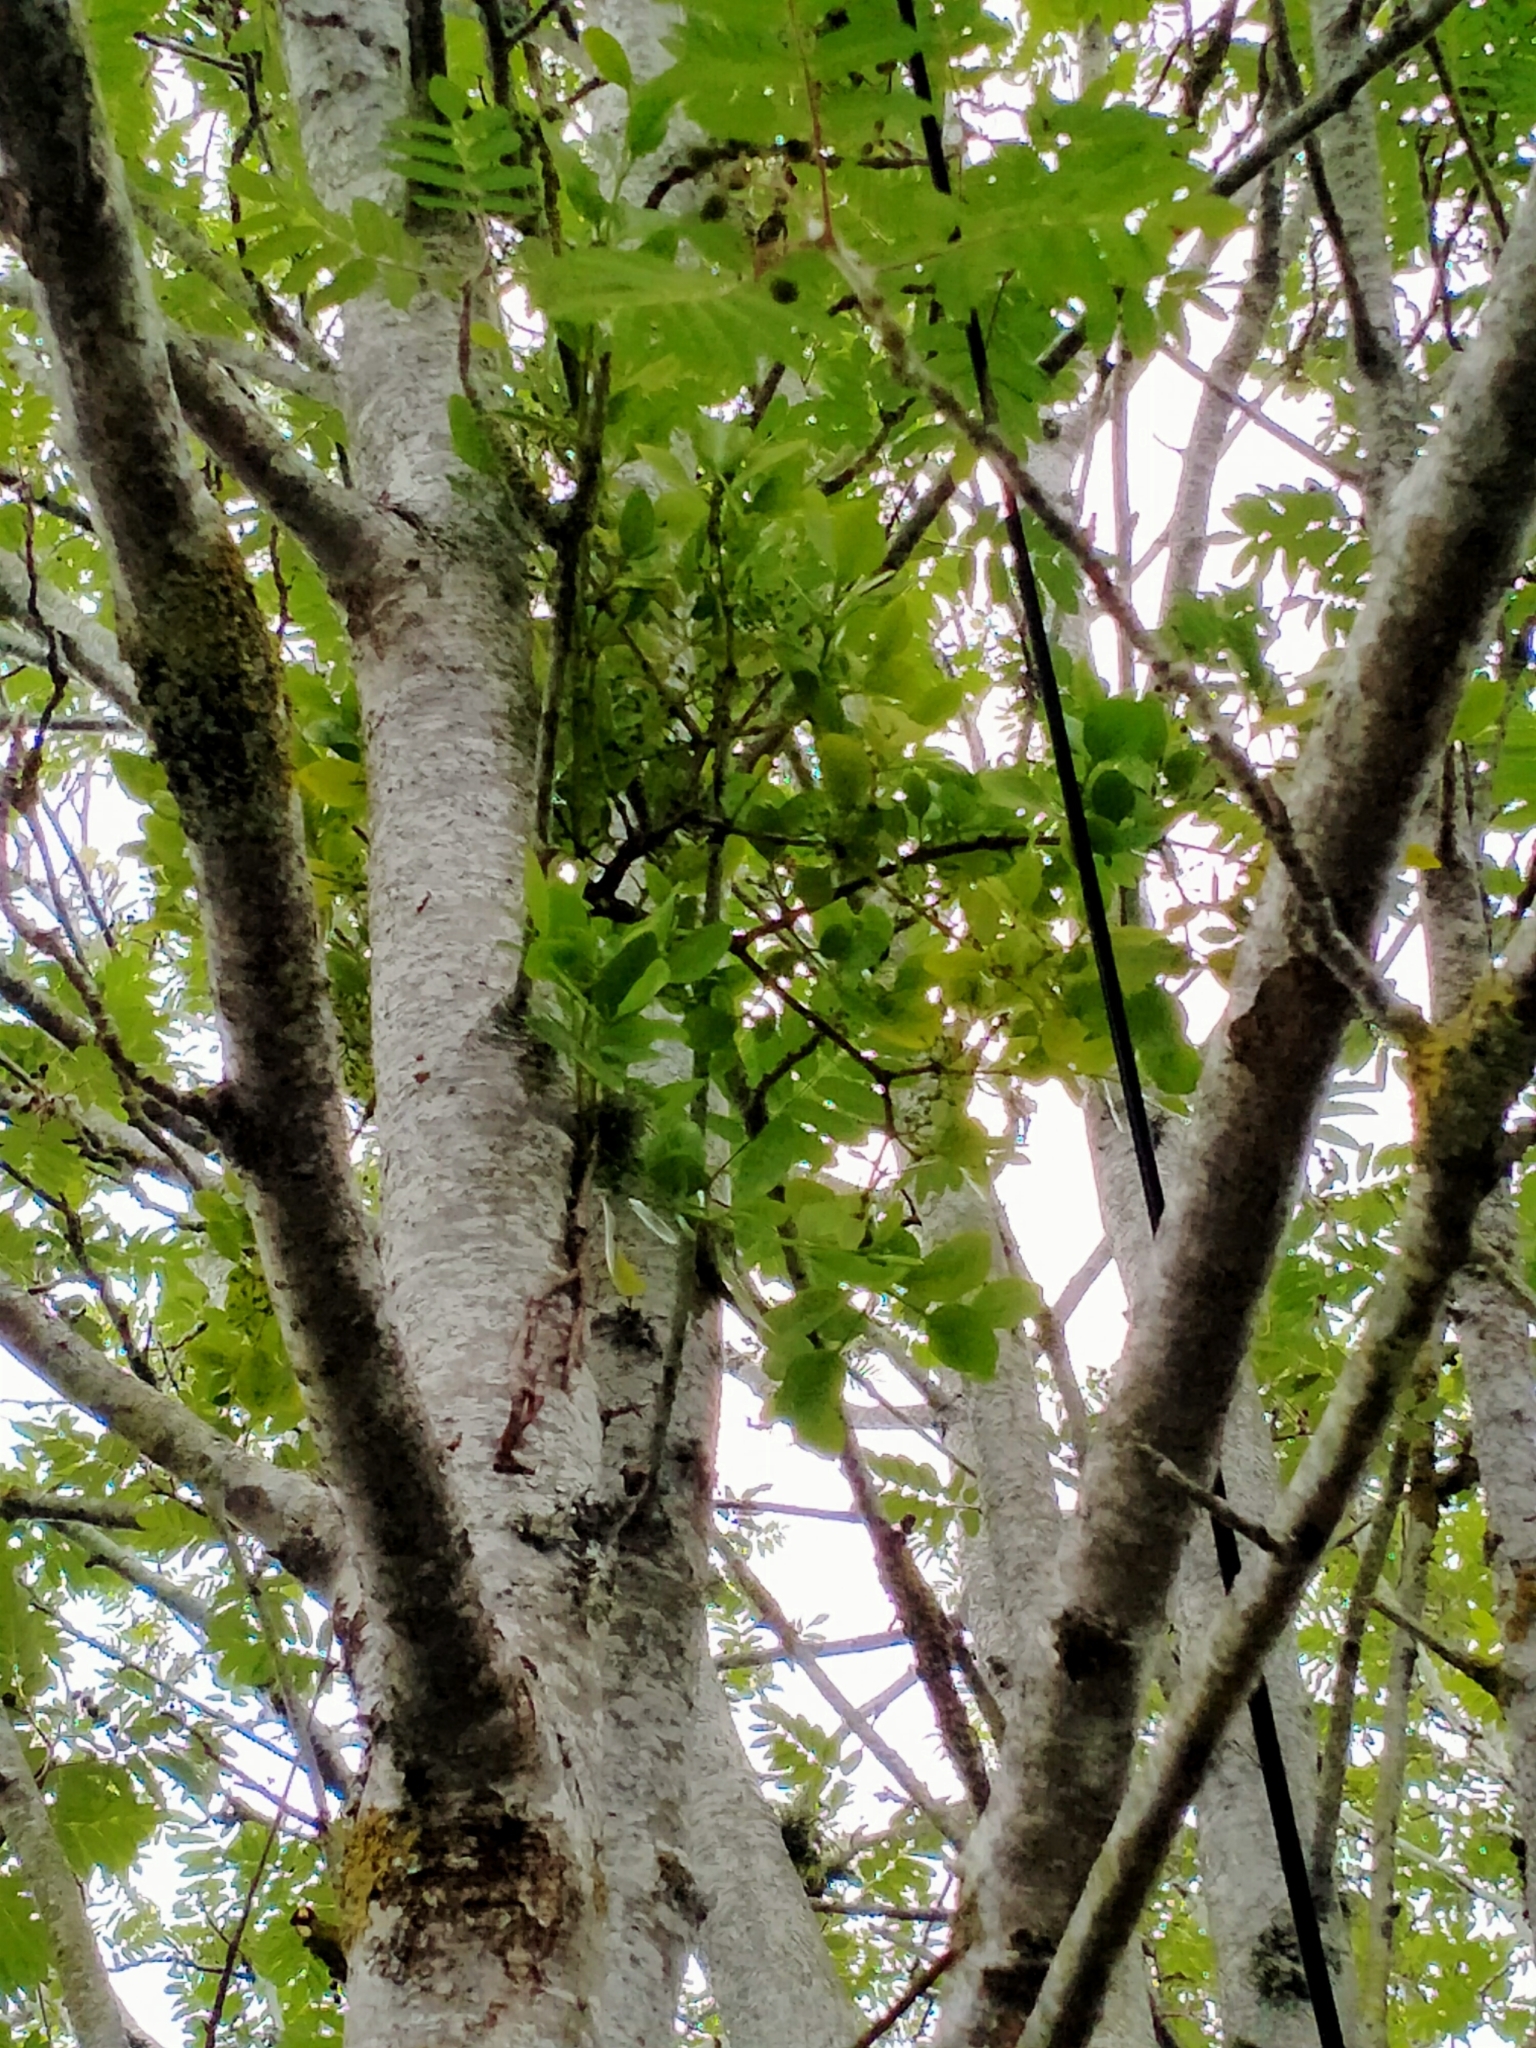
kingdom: Plantae
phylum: Tracheophyta
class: Magnoliopsida
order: Santalales
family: Loranthaceae
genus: Ileostylus
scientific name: Ileostylus micranthus
